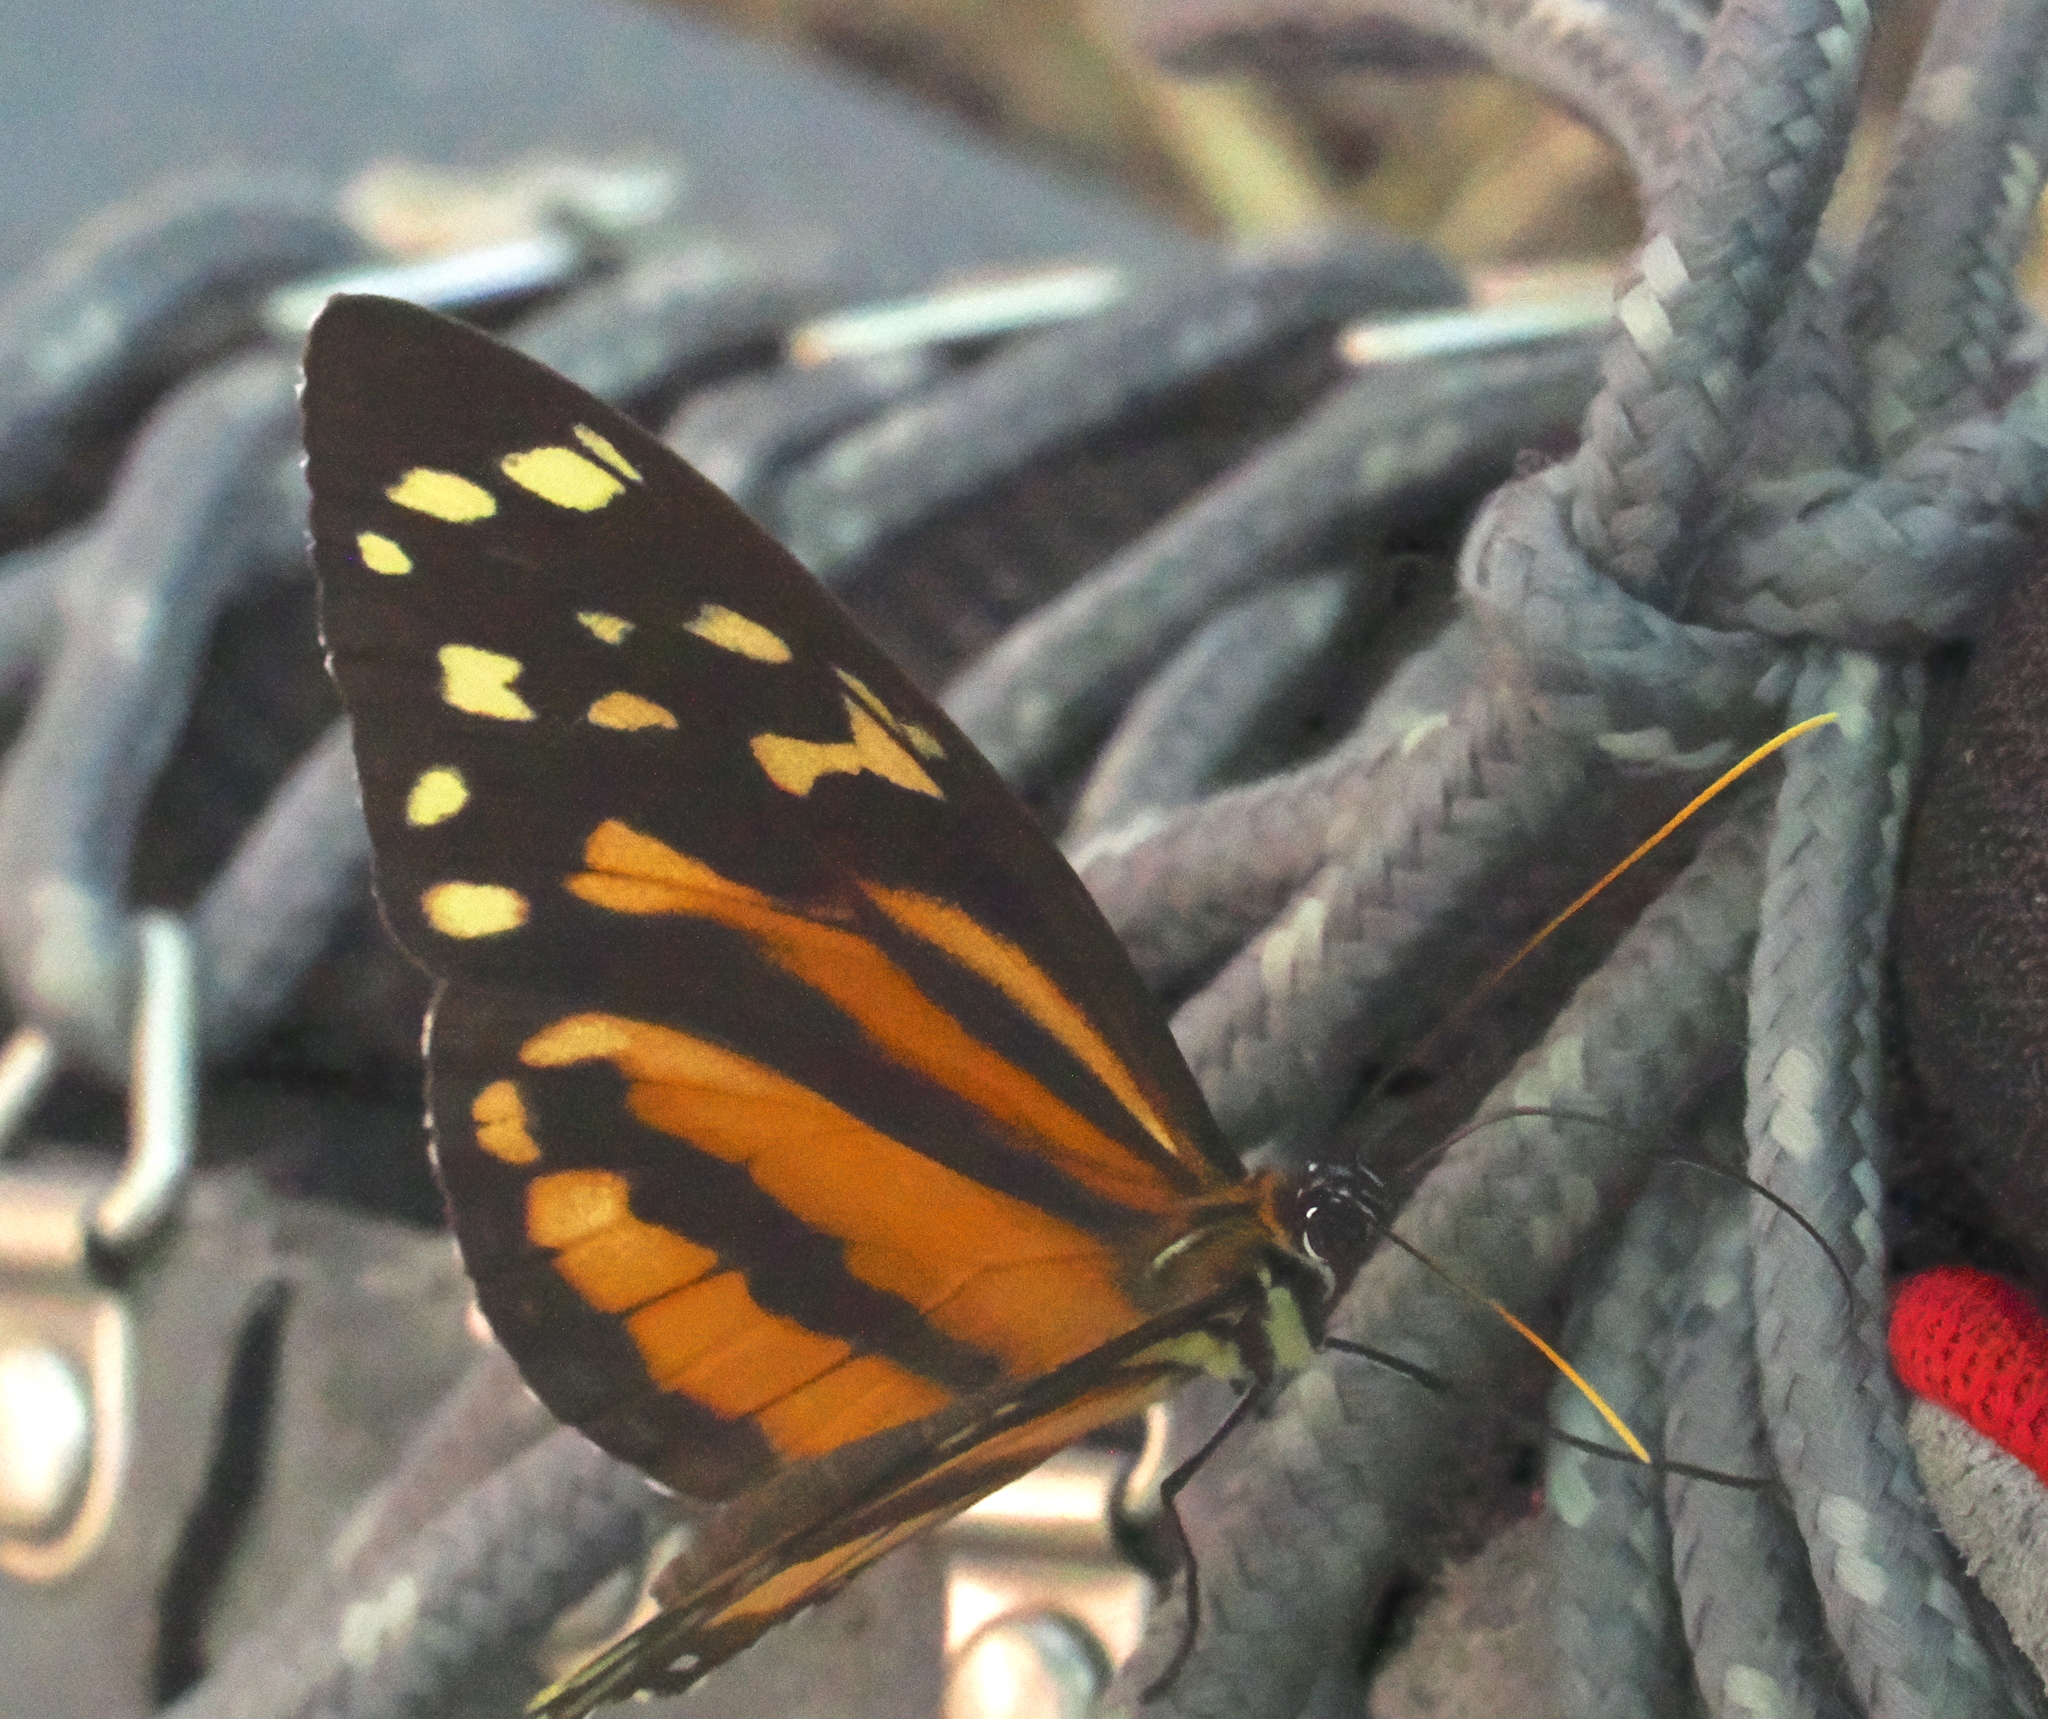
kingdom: Animalia
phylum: Arthropoda
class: Insecta
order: Lepidoptera
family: Nymphalidae
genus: Tithorea
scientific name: Tithorea harmonia
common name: Harmonia tigerwing
